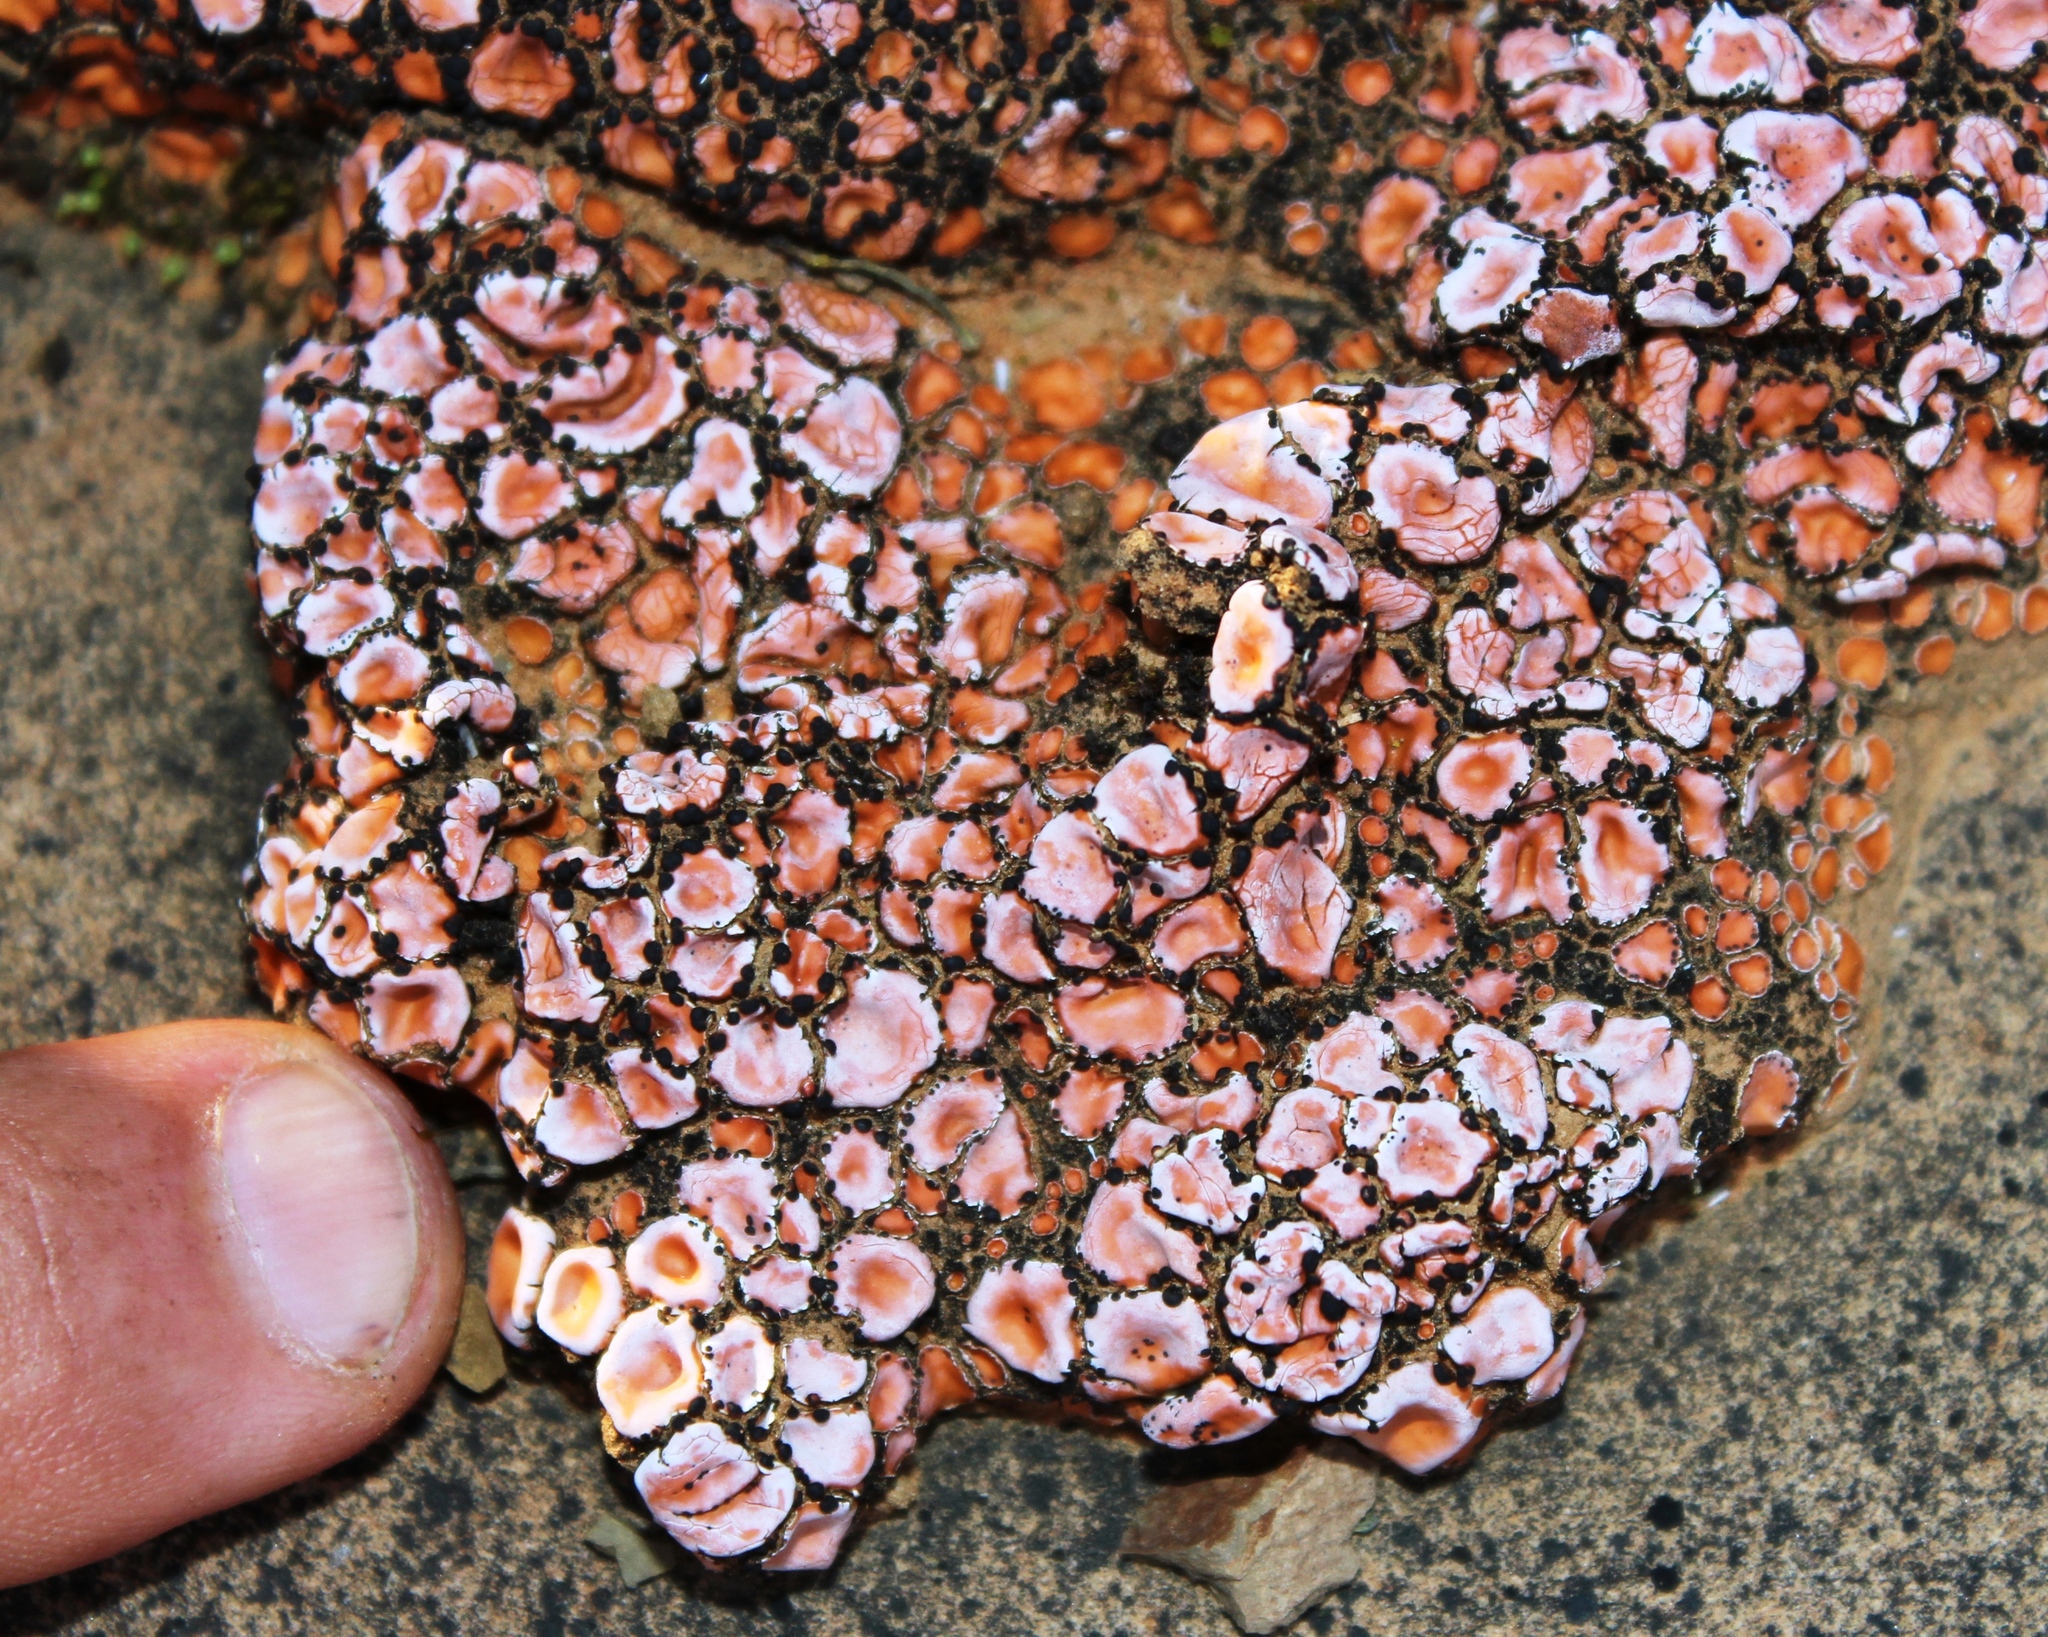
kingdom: Fungi
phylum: Ascomycota
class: Lecanoromycetes
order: Lecanorales
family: Psoraceae
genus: Psora
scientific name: Psora crenata
